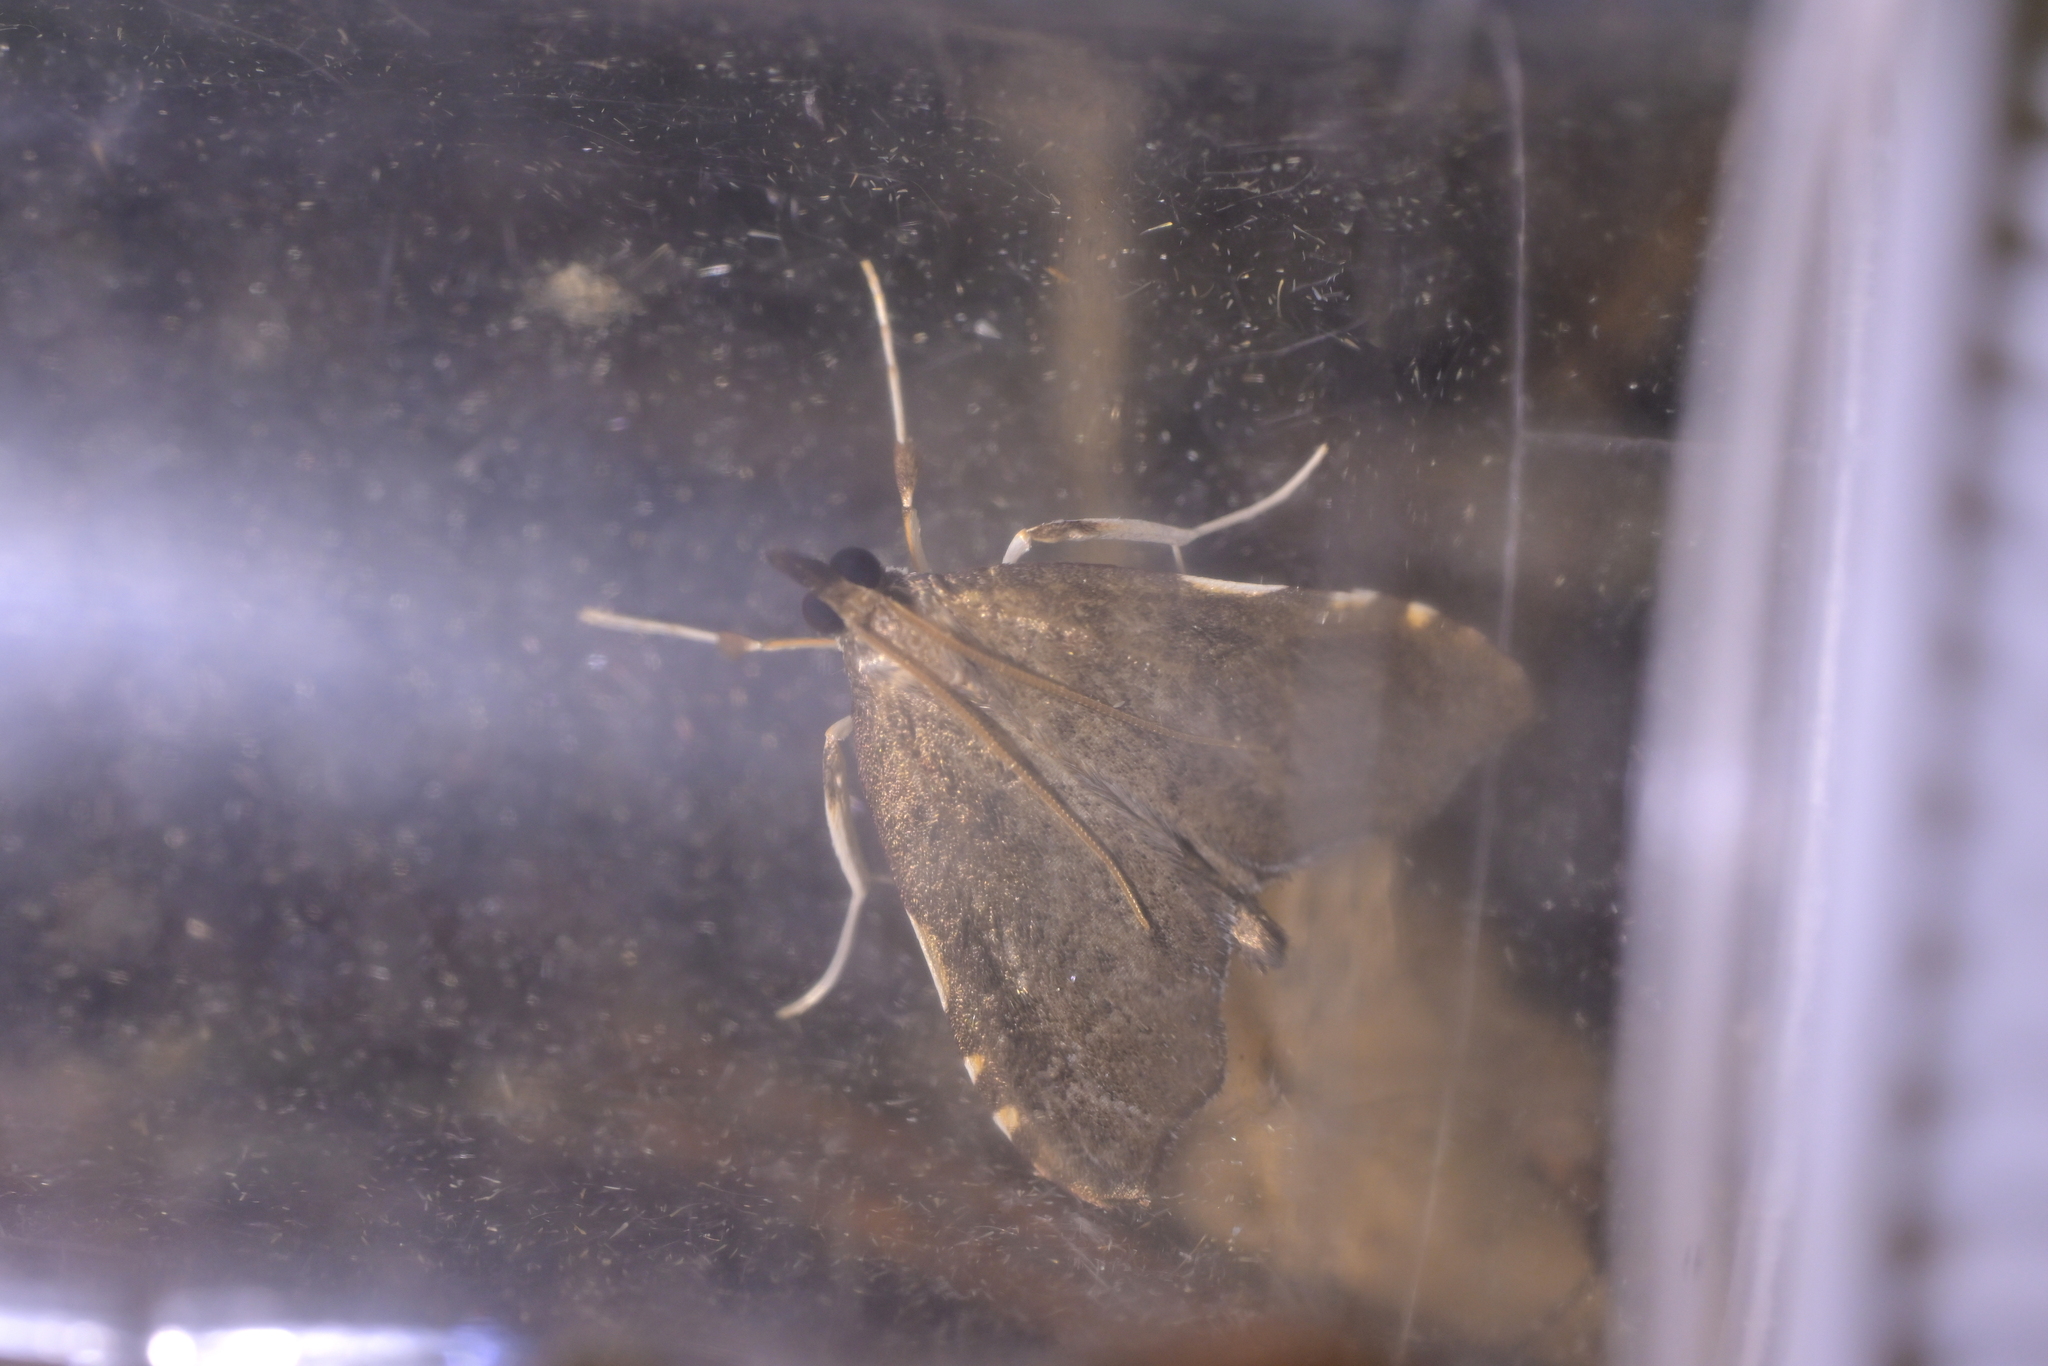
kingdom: Animalia
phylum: Arthropoda
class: Insecta
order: Lepidoptera
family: Crambidae
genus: Deana
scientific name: Deana hybreasalis
